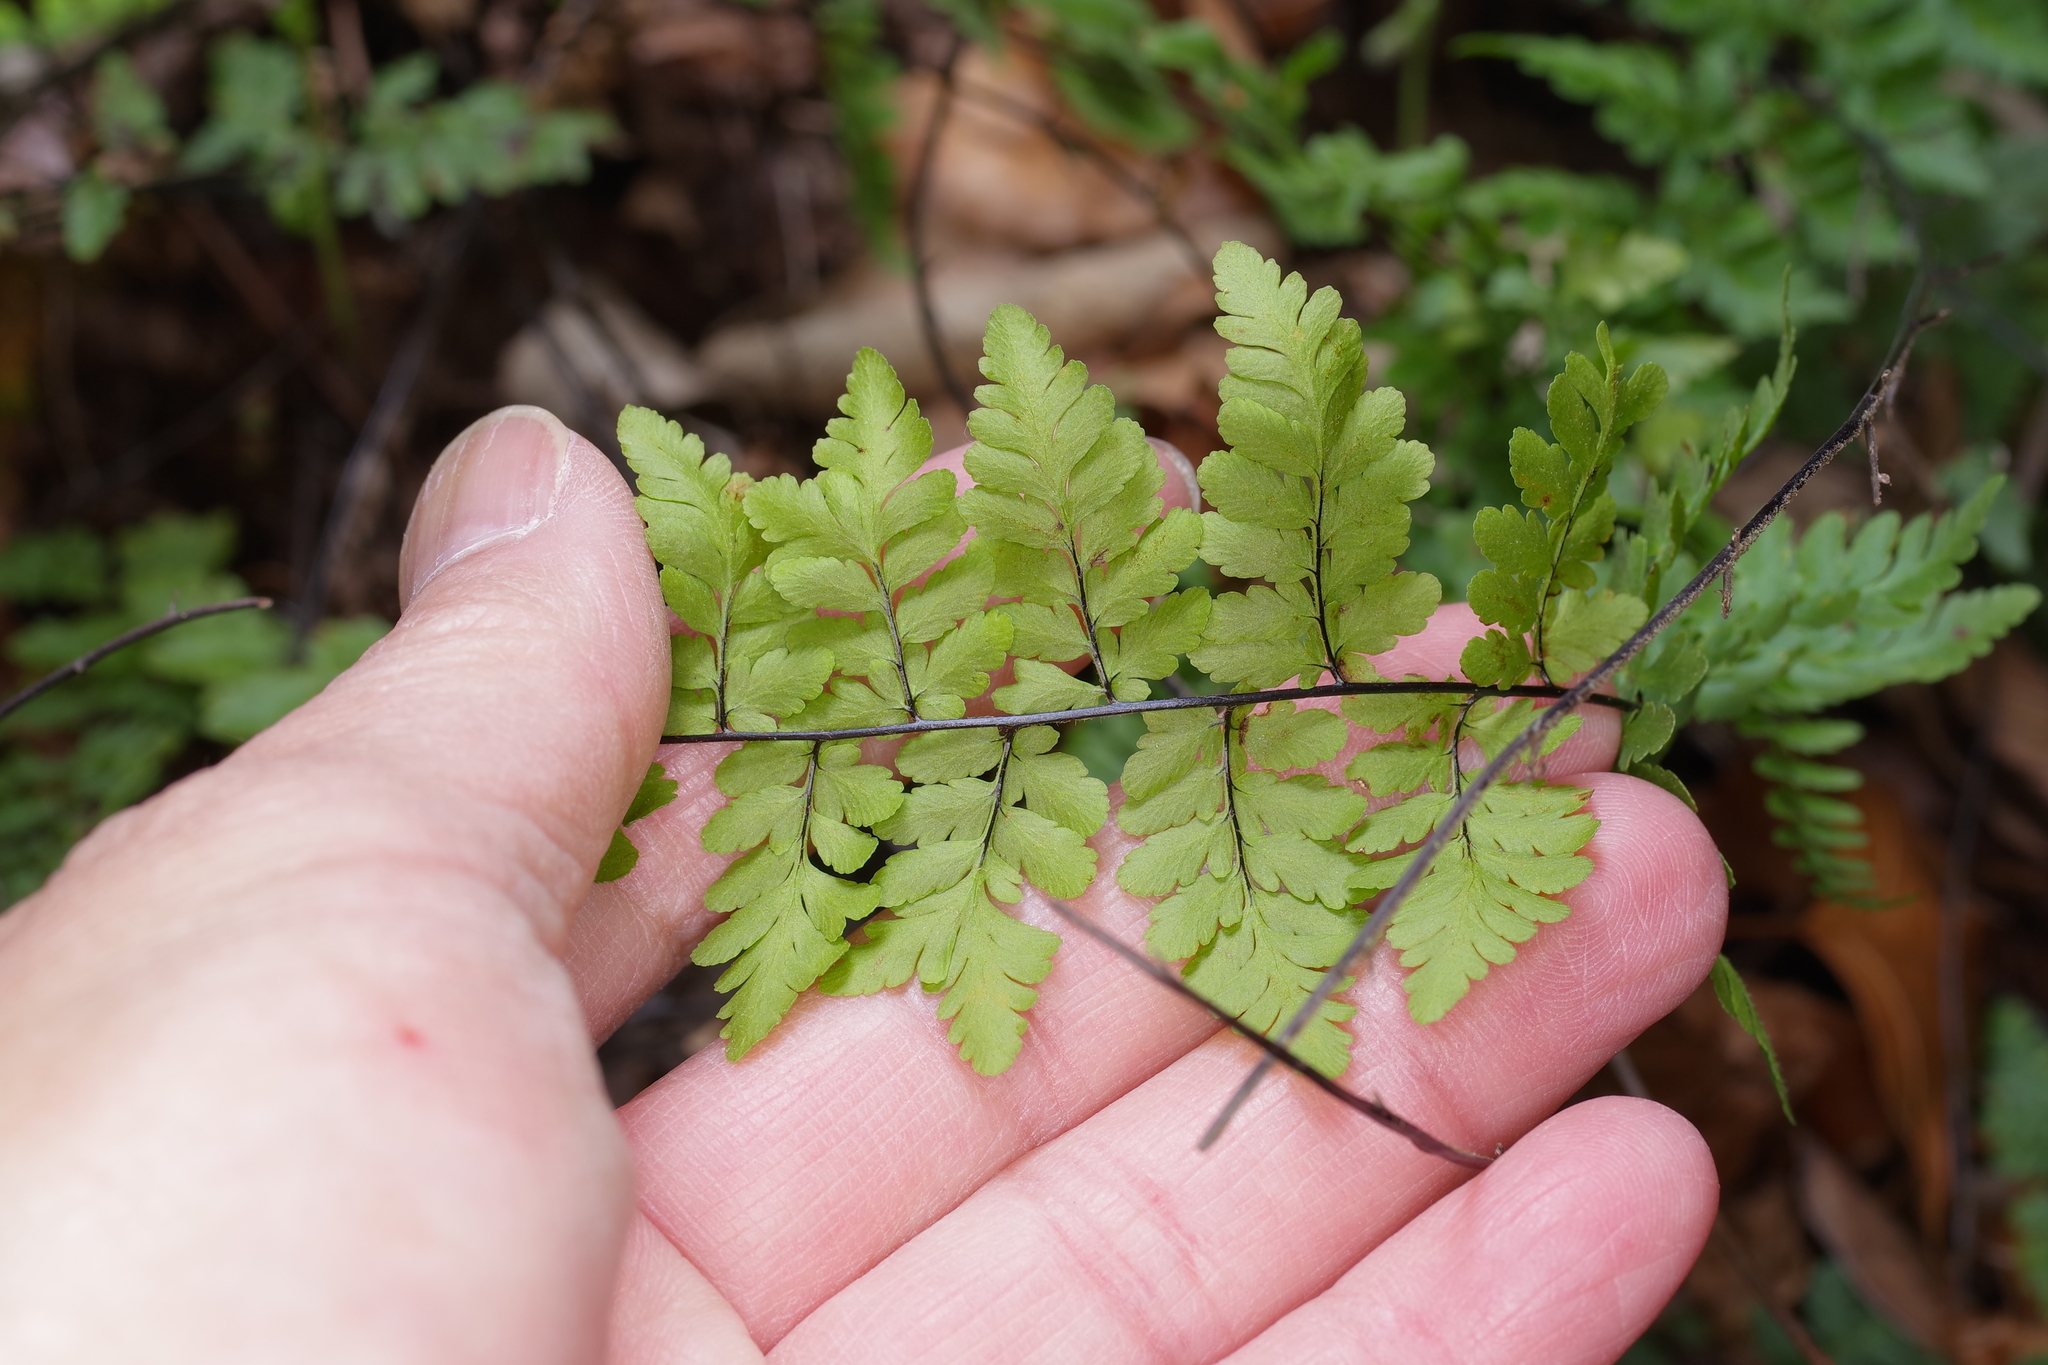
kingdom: Plantae
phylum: Tracheophyta
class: Polypodiopsida
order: Polypodiales
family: Pteridaceae
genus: Myriopteris
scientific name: Myriopteris alabamensis
